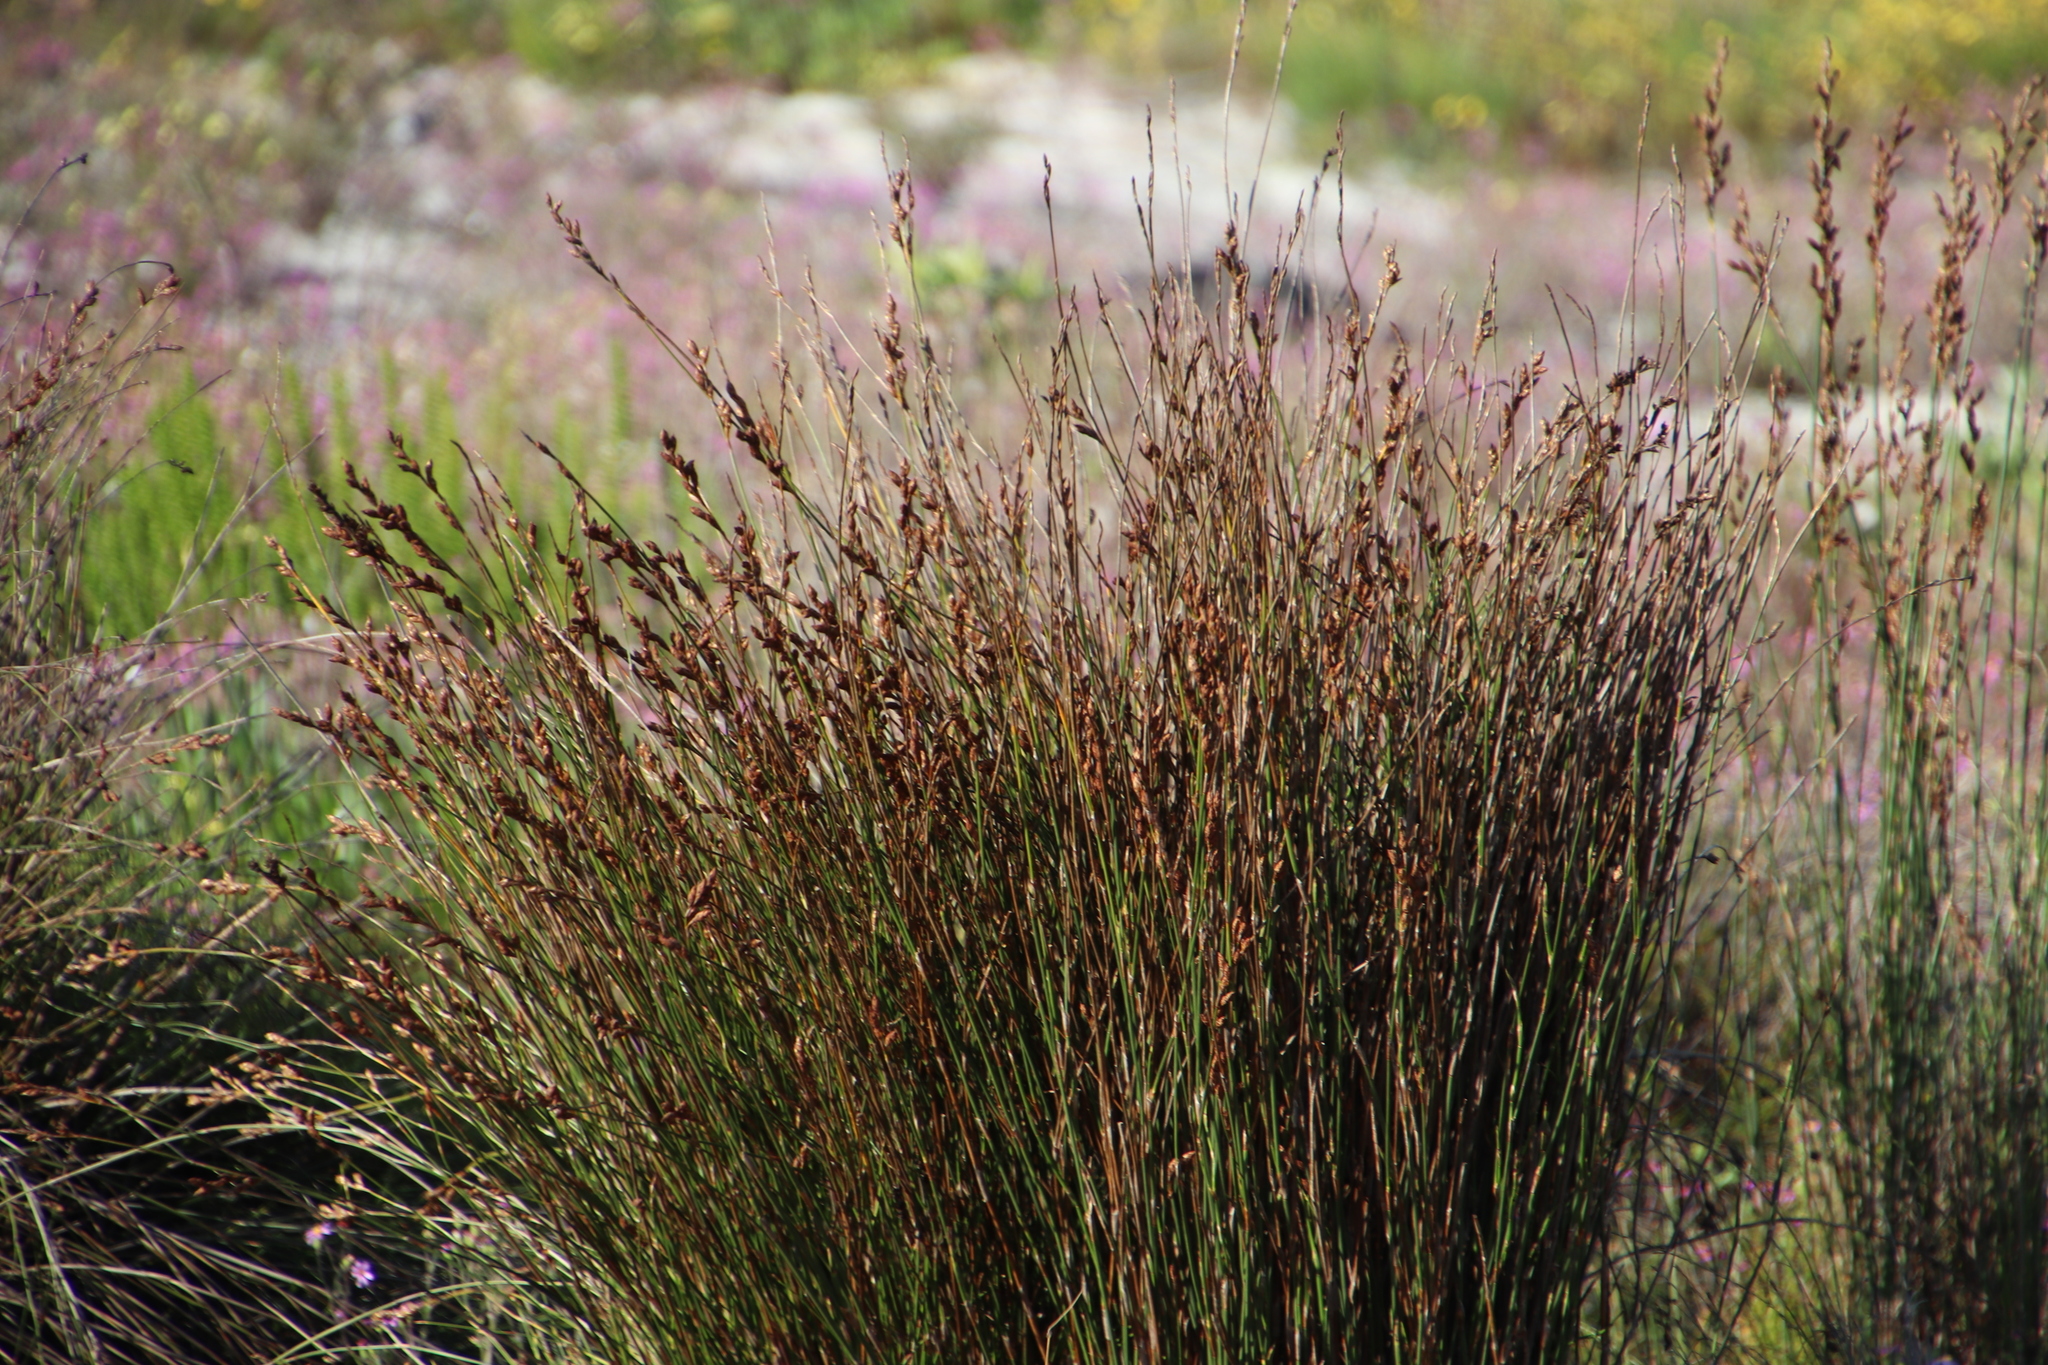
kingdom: Plantae
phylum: Tracheophyta
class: Liliopsida
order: Poales
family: Restionaceae
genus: Restio
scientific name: Restio bifurcus
